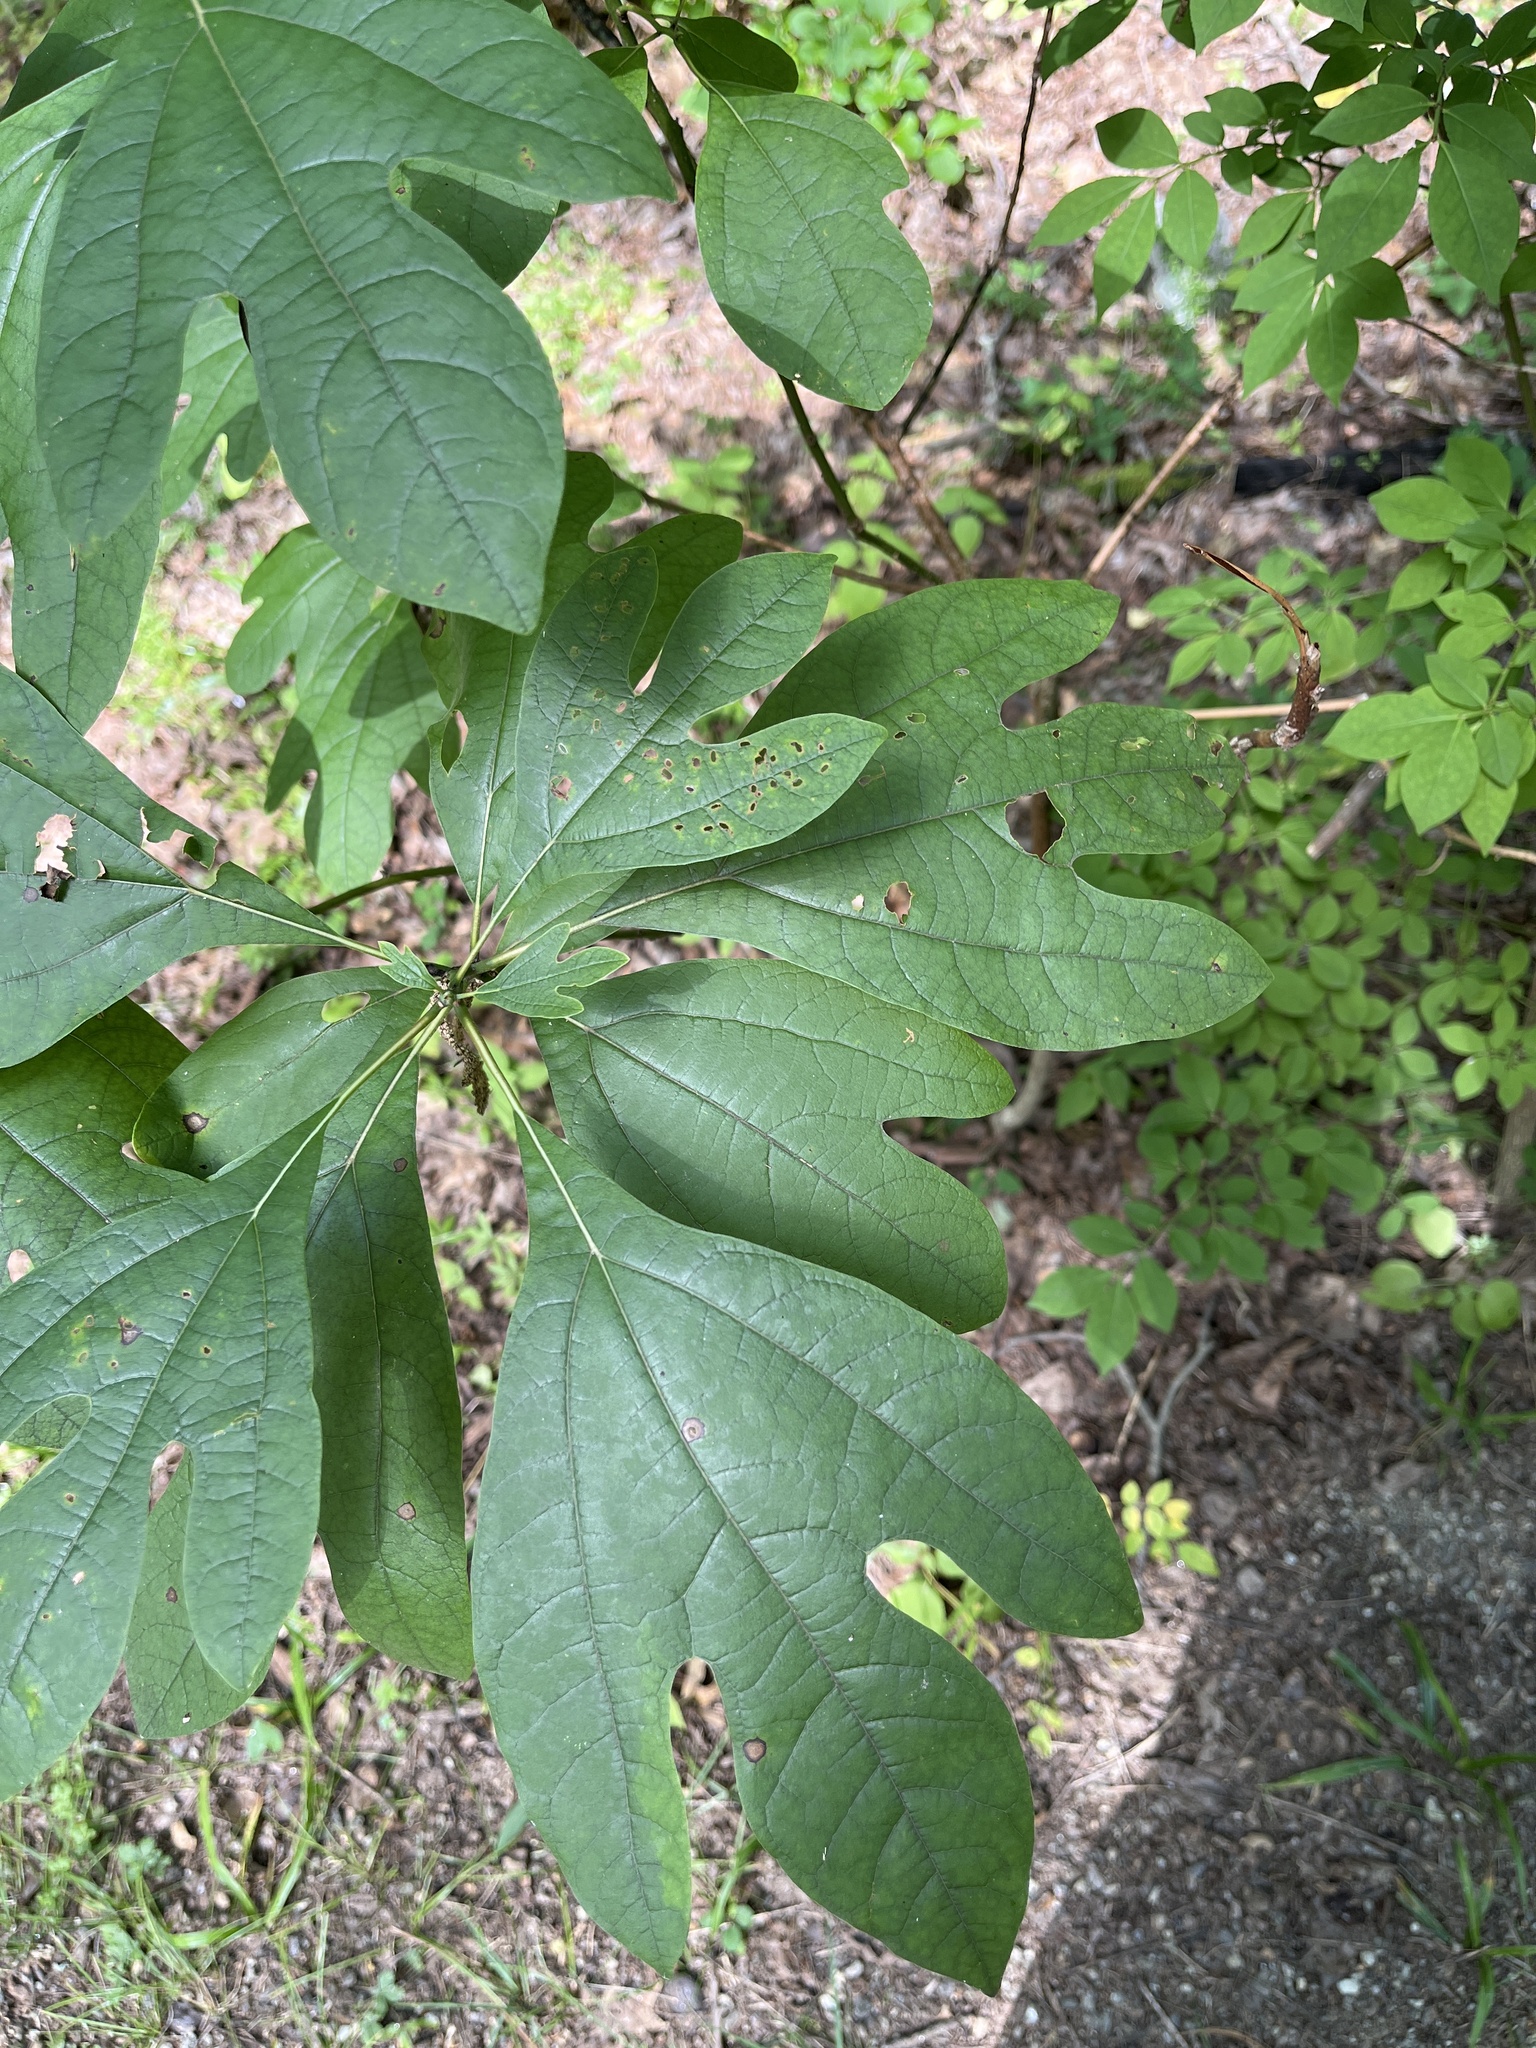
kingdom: Plantae
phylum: Tracheophyta
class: Magnoliopsida
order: Laurales
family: Lauraceae
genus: Sassafras
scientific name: Sassafras albidum
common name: Sassafras
